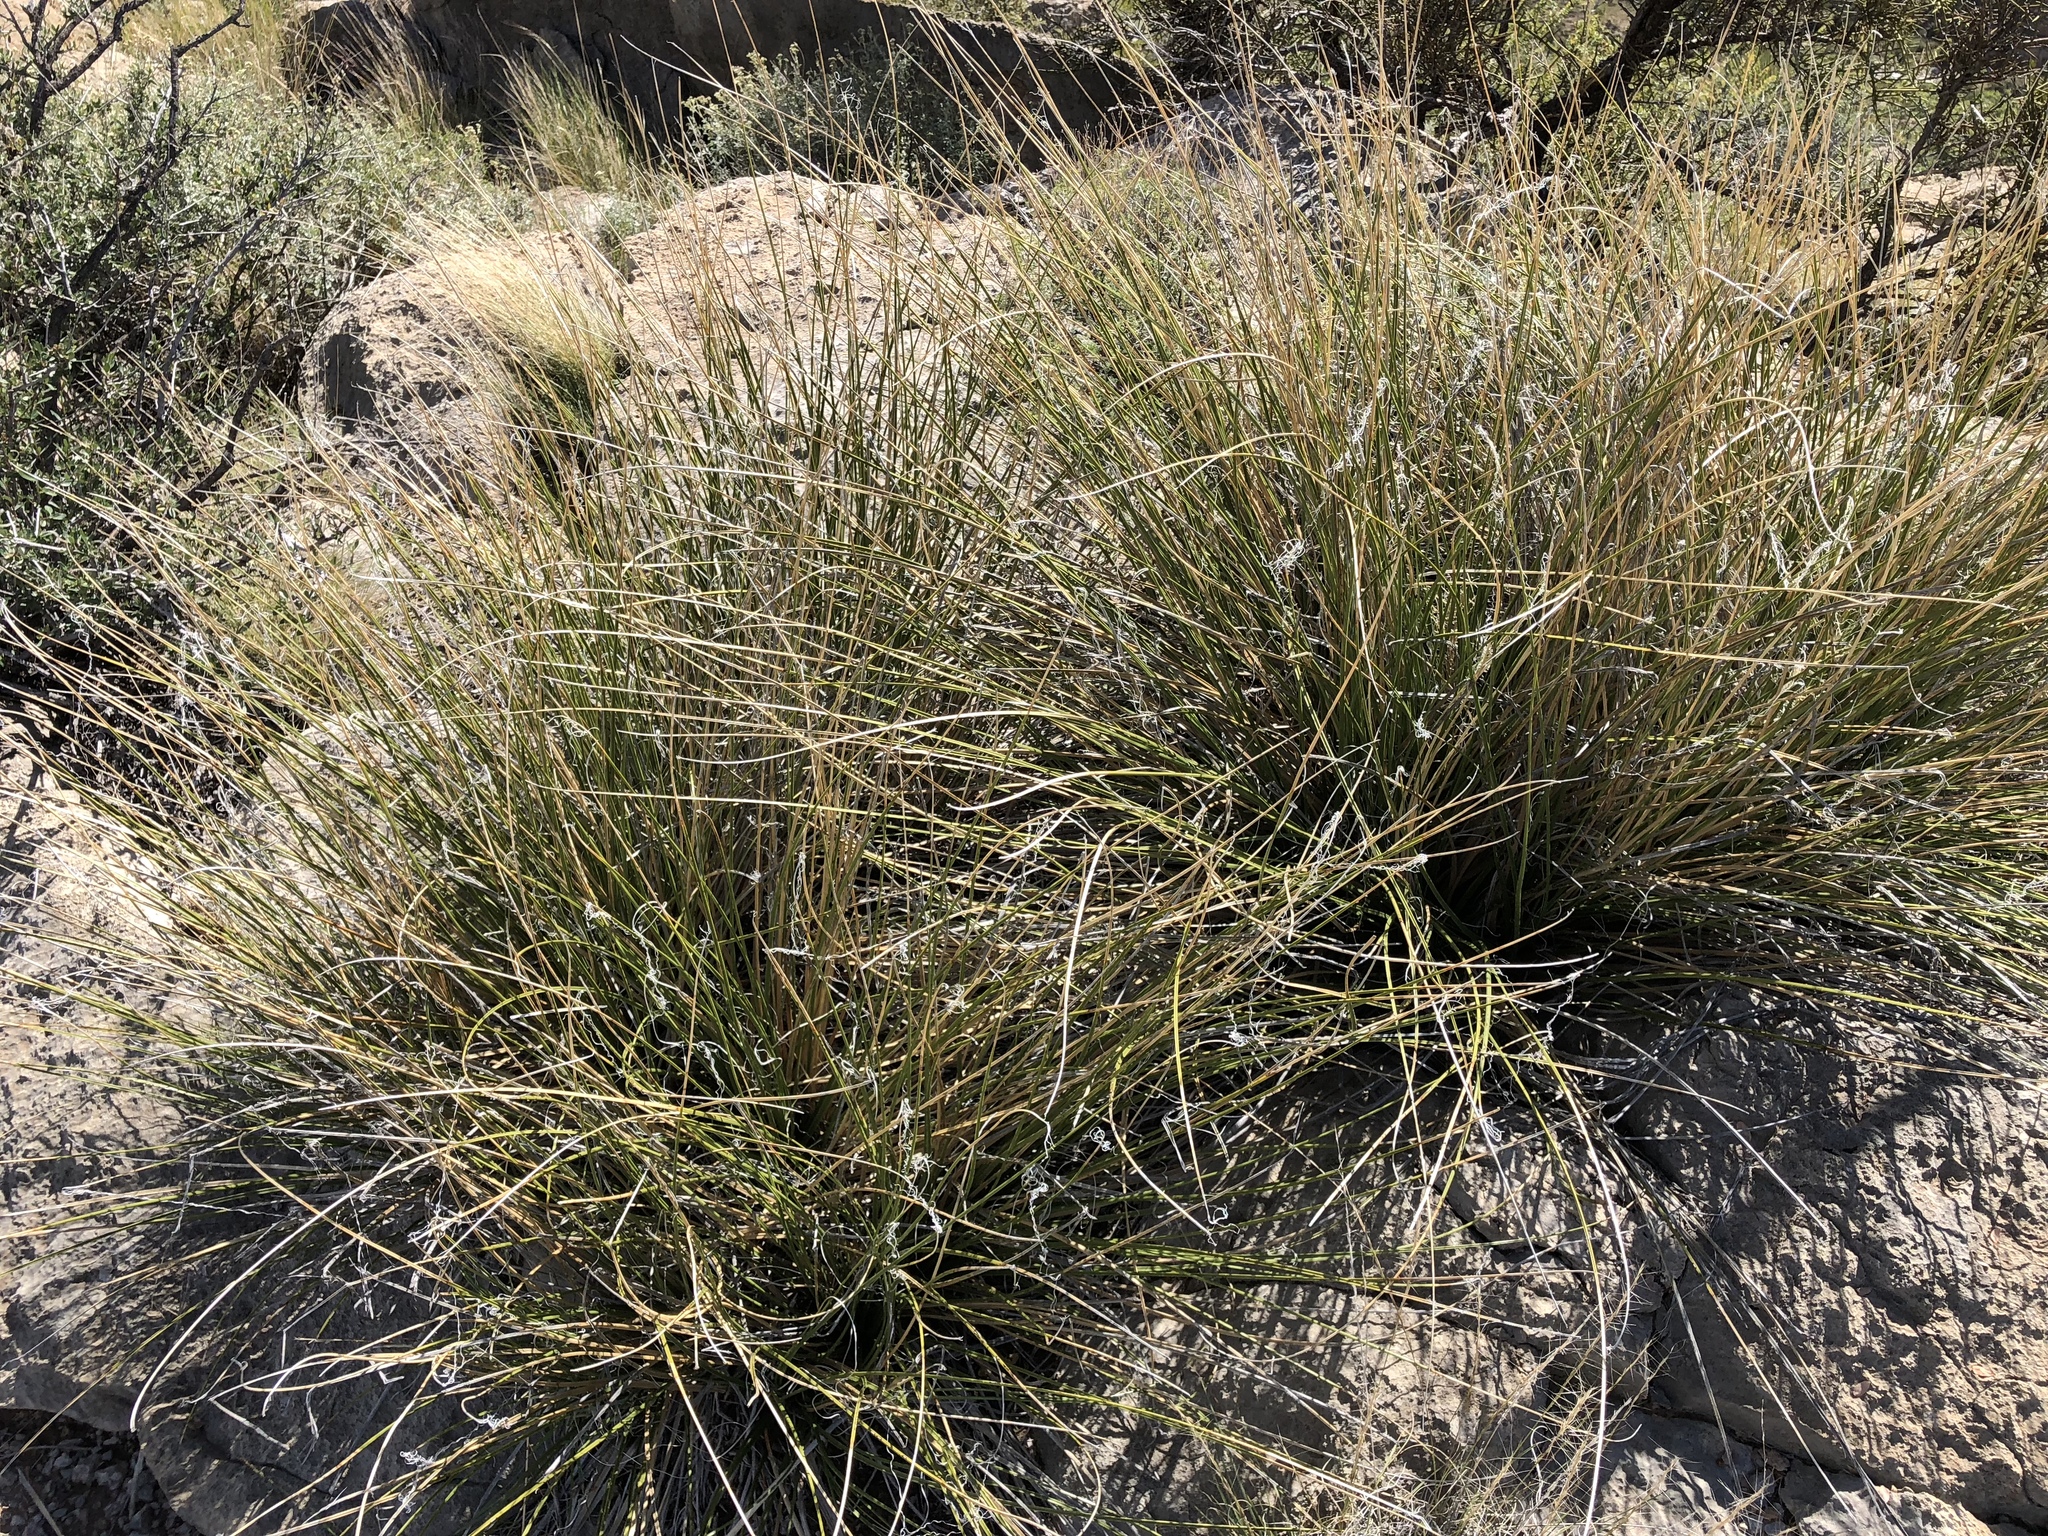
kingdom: Plantae
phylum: Tracheophyta
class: Liliopsida
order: Asparagales
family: Asparagaceae
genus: Nolina
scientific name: Nolina microcarpa
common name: Bear-grass
